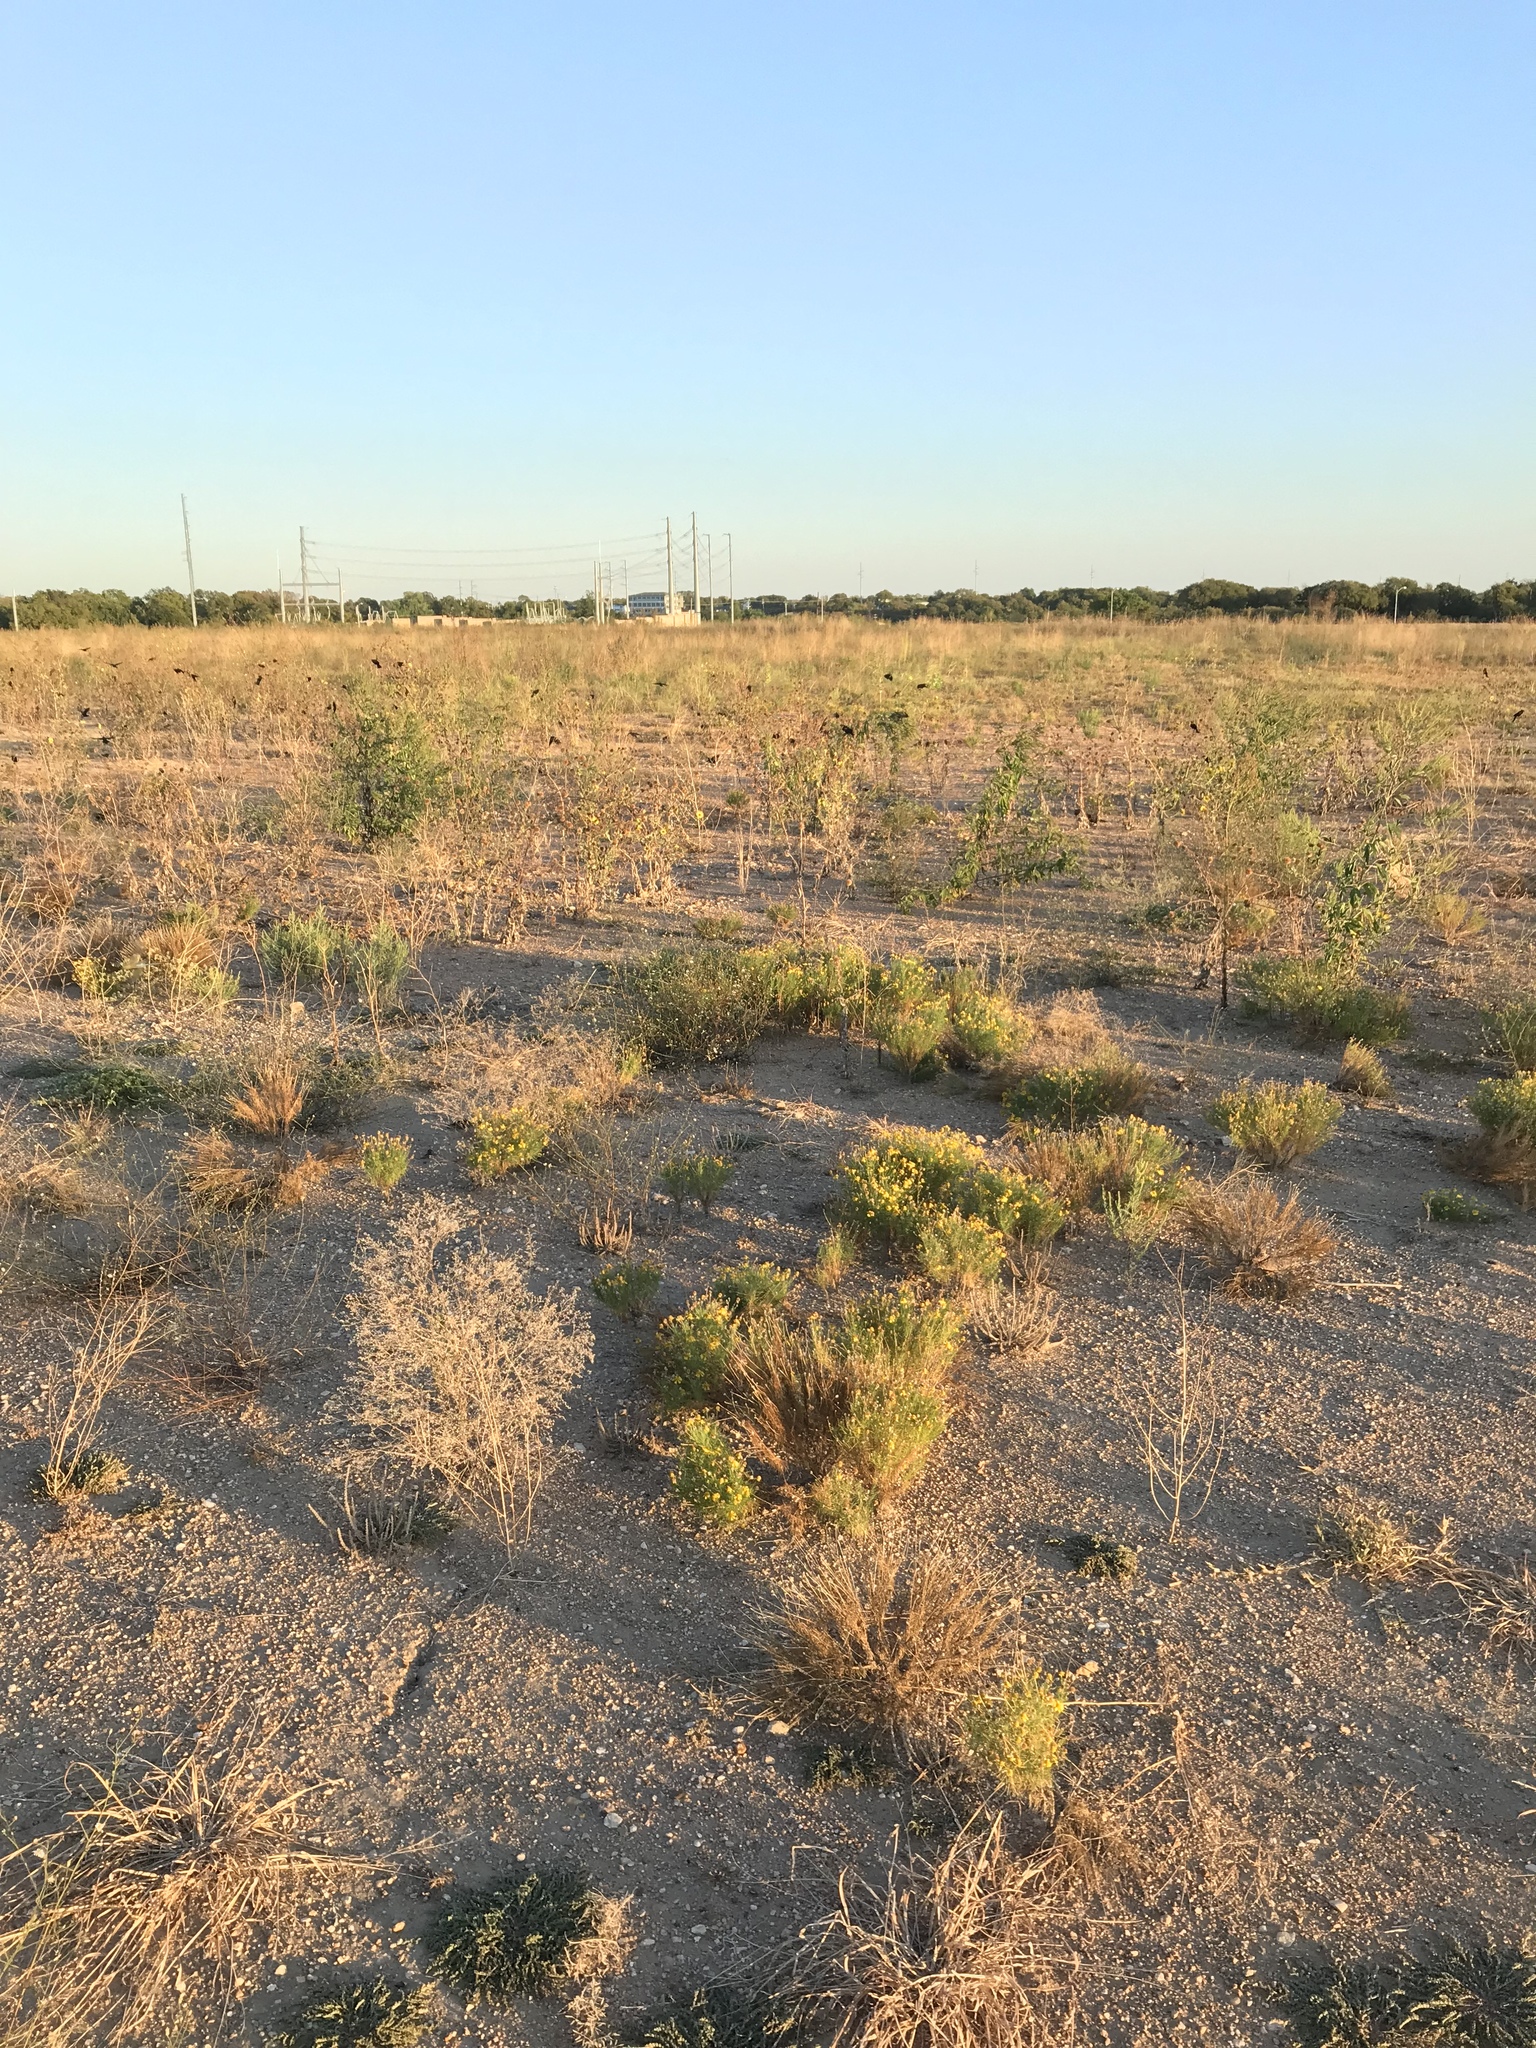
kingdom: Animalia
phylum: Chordata
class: Aves
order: Passeriformes
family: Icteridae
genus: Agelaius
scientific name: Agelaius phoeniceus
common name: Red-winged blackbird
